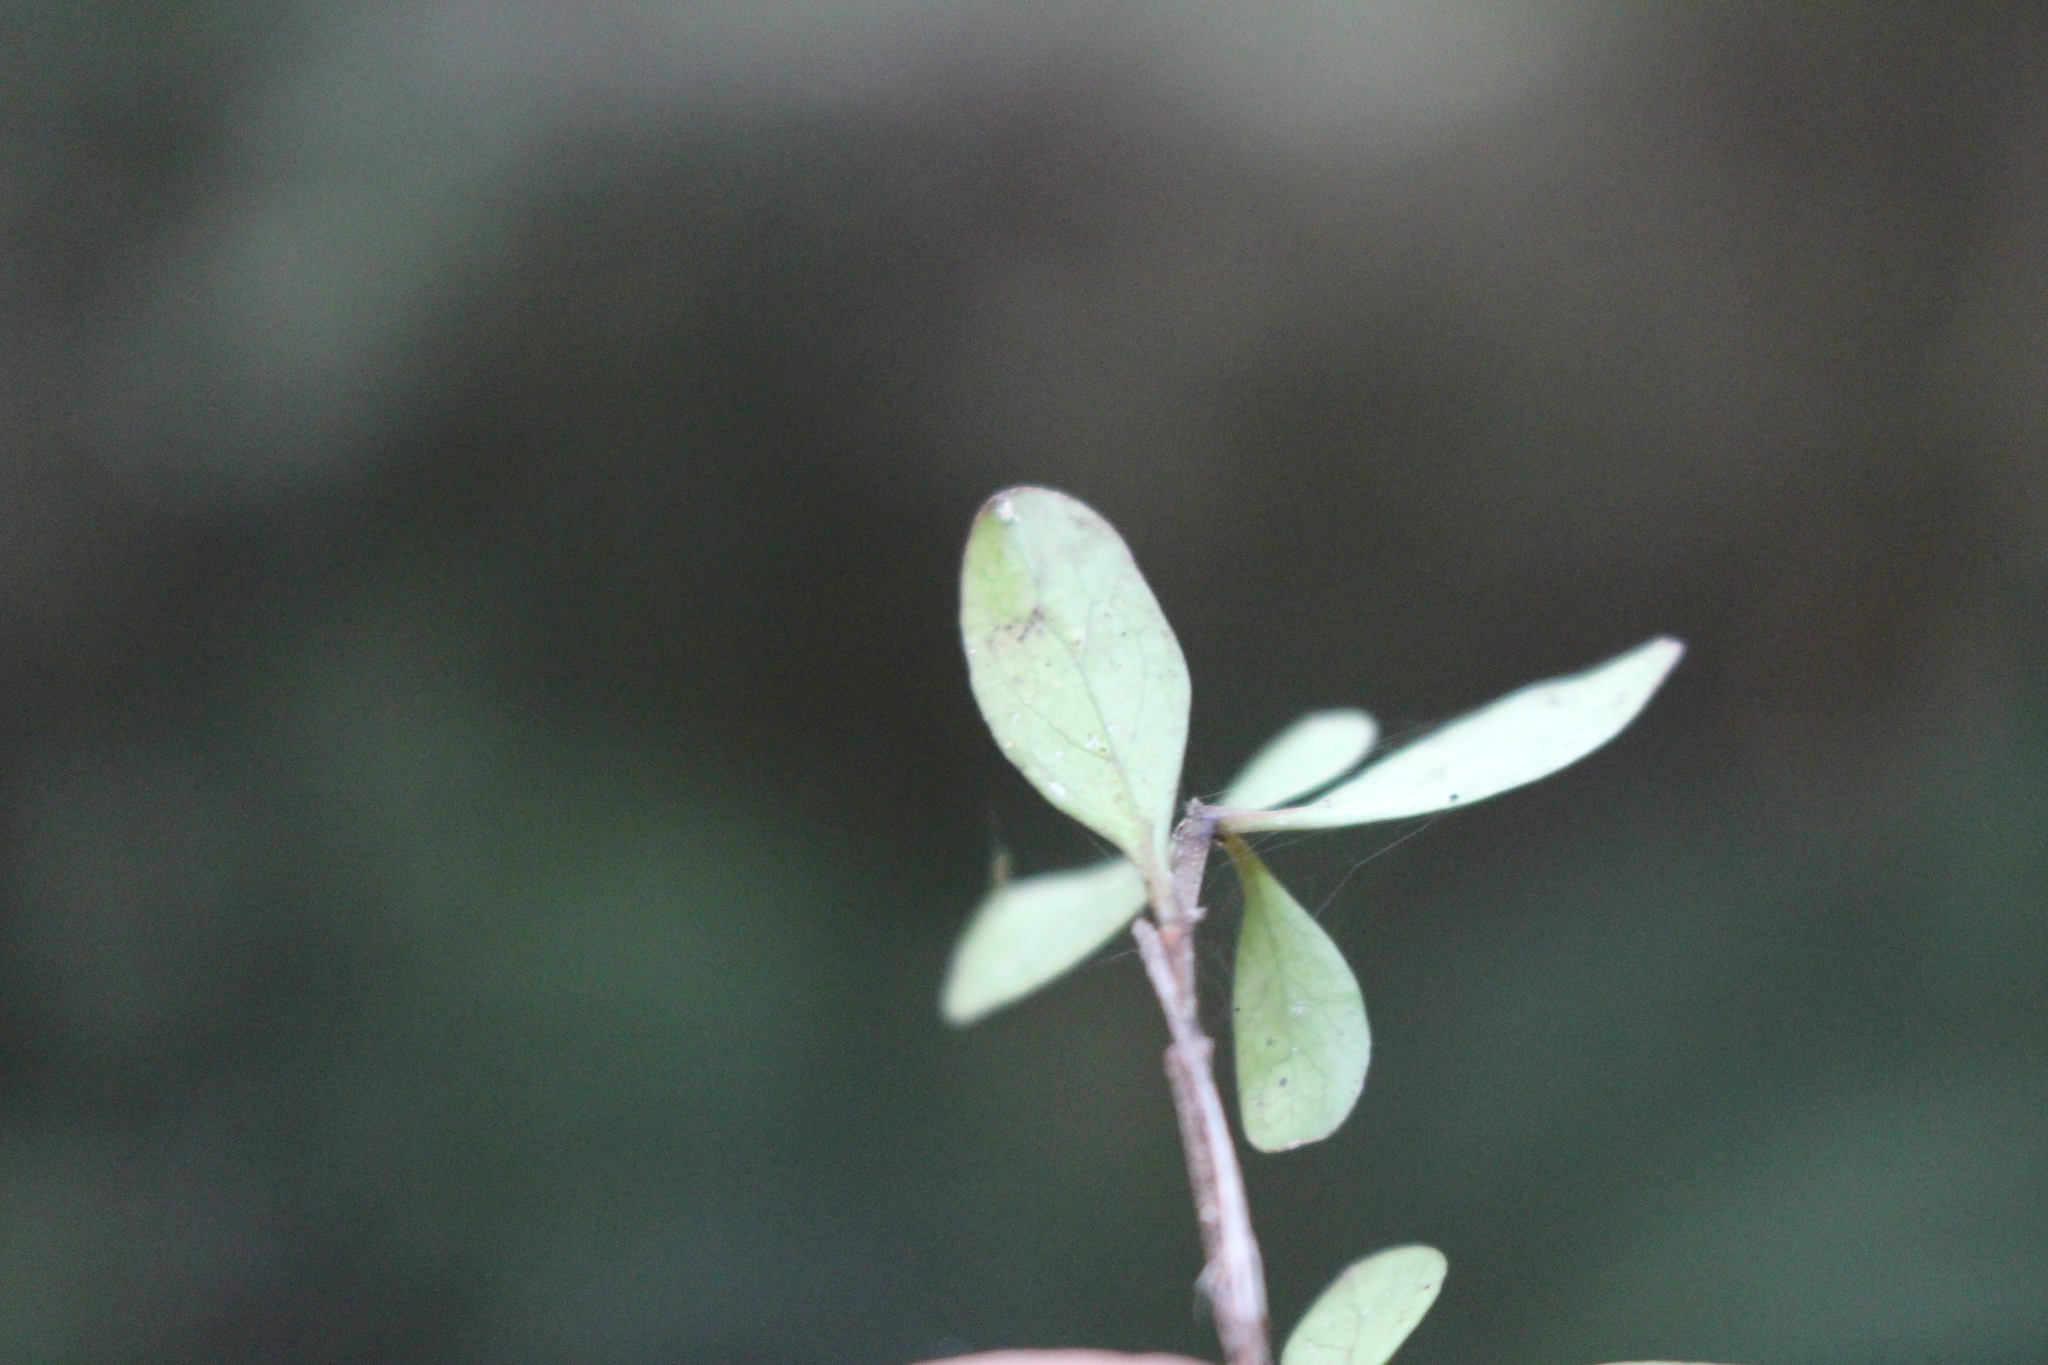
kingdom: Plantae
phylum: Tracheophyta
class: Magnoliopsida
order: Gentianales
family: Rubiaceae
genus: Coprosma
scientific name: Coprosma rigida
